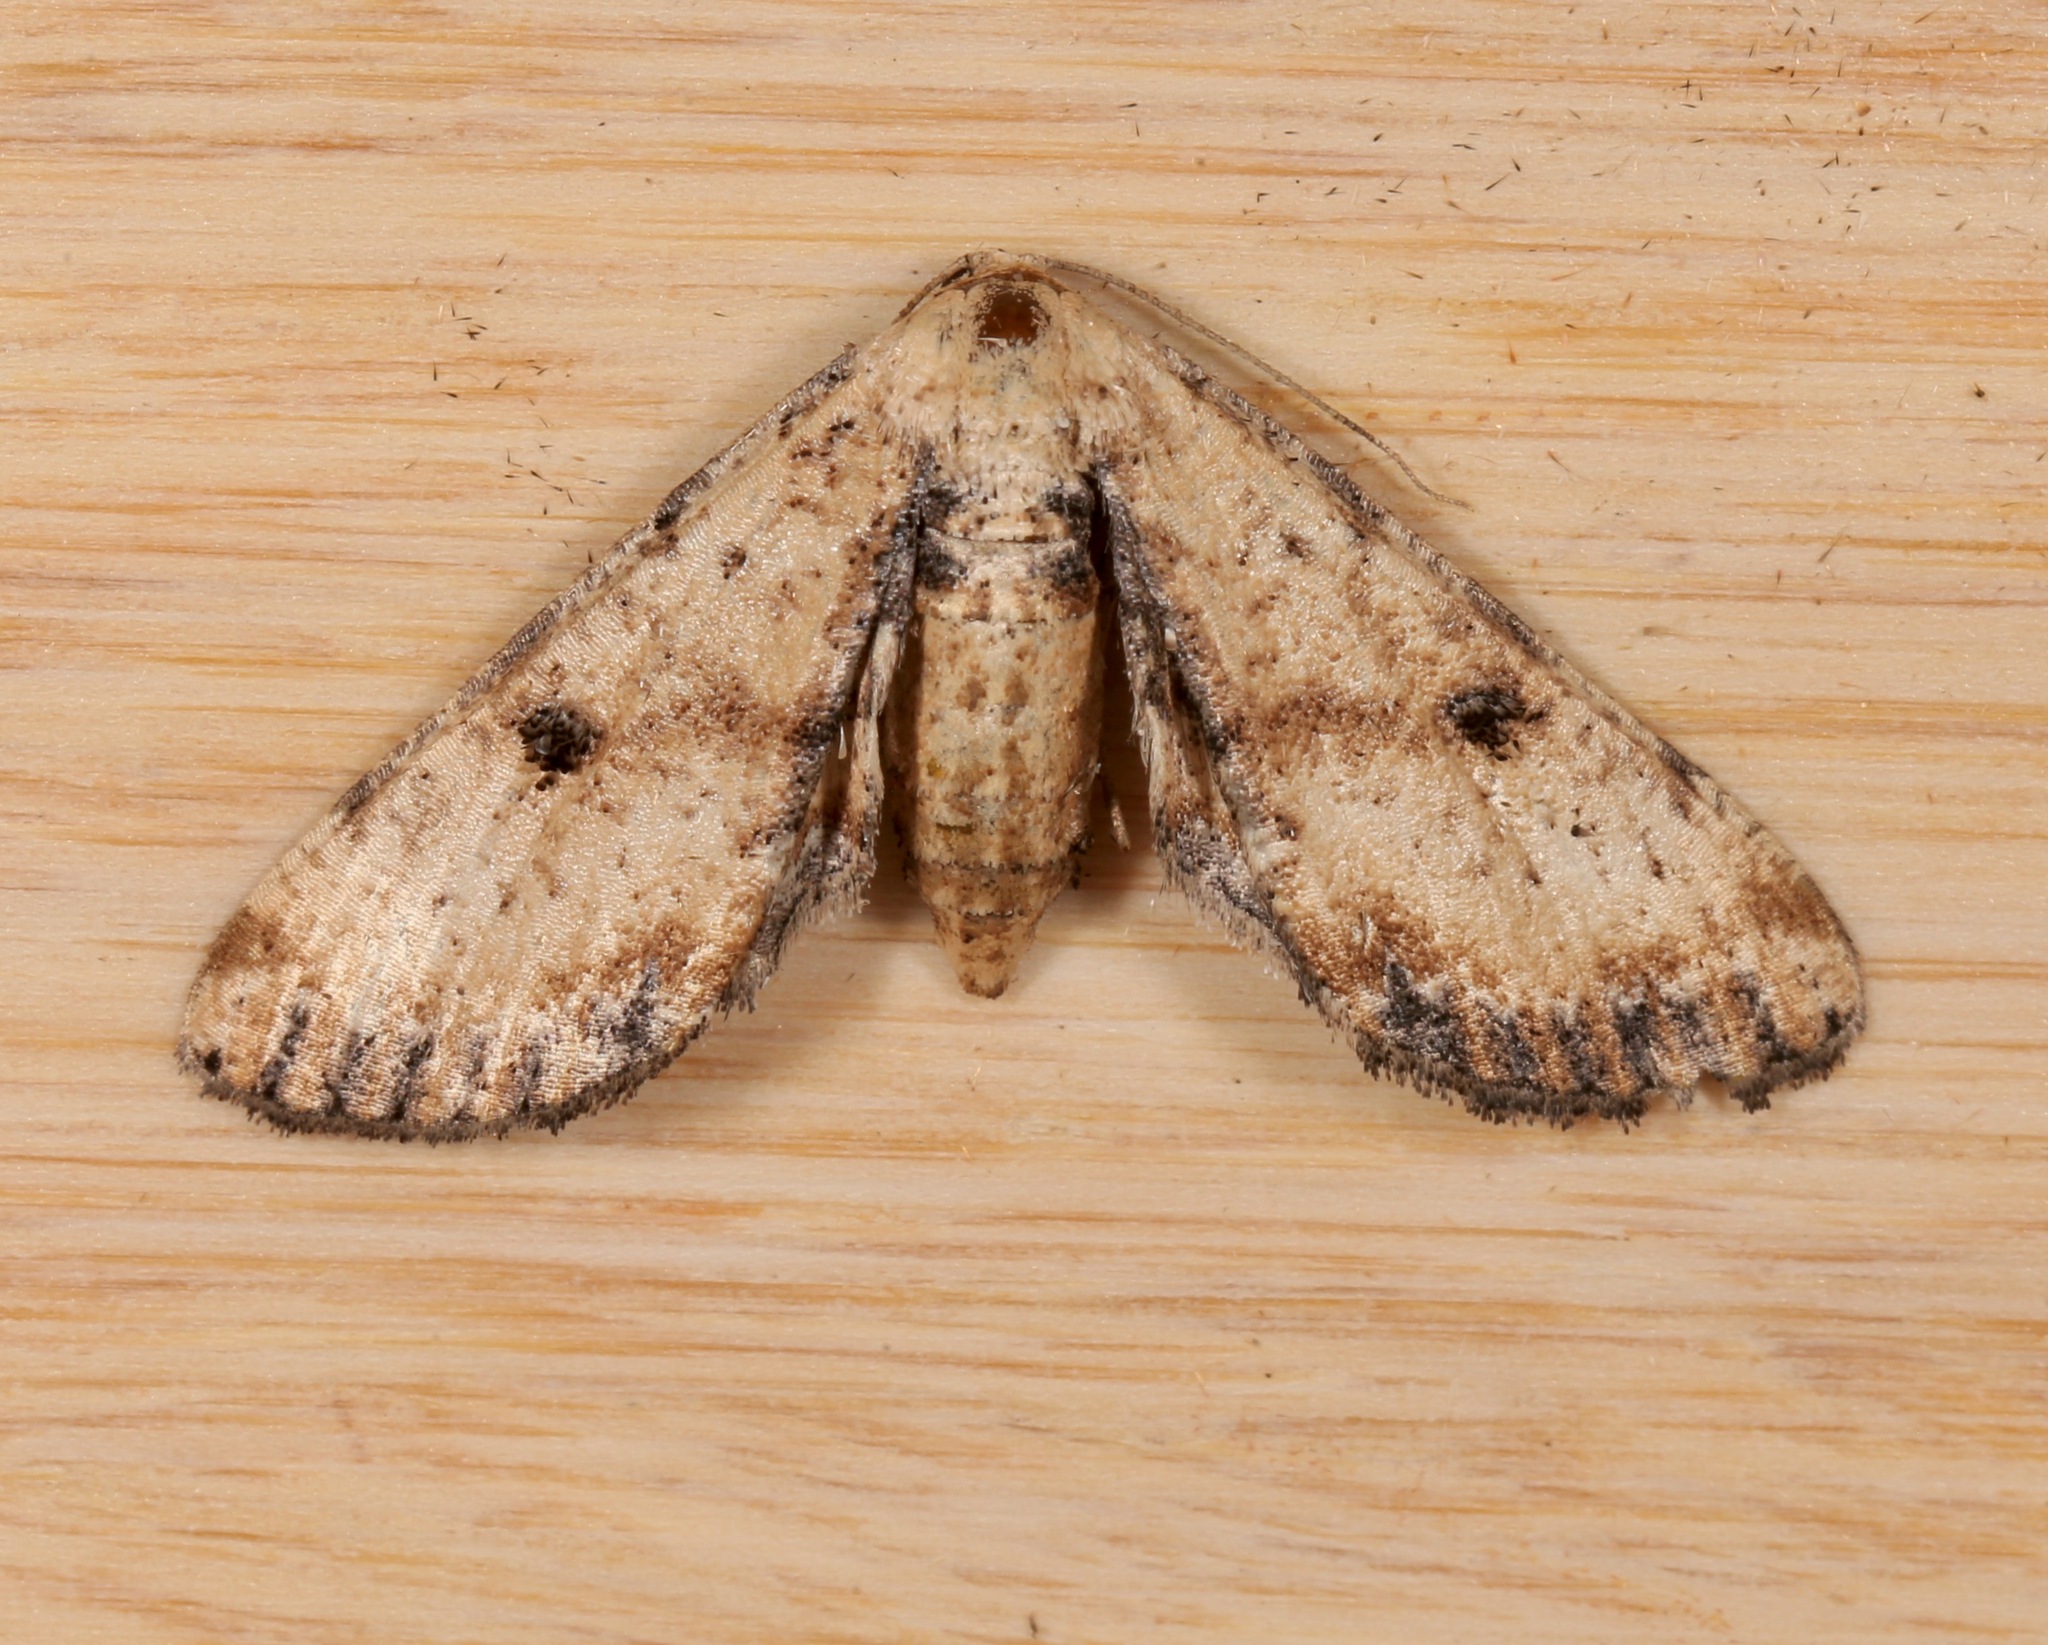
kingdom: Animalia
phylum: Arthropoda
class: Insecta
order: Lepidoptera
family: Geometridae
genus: Tornos
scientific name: Tornos scolopacinaria
